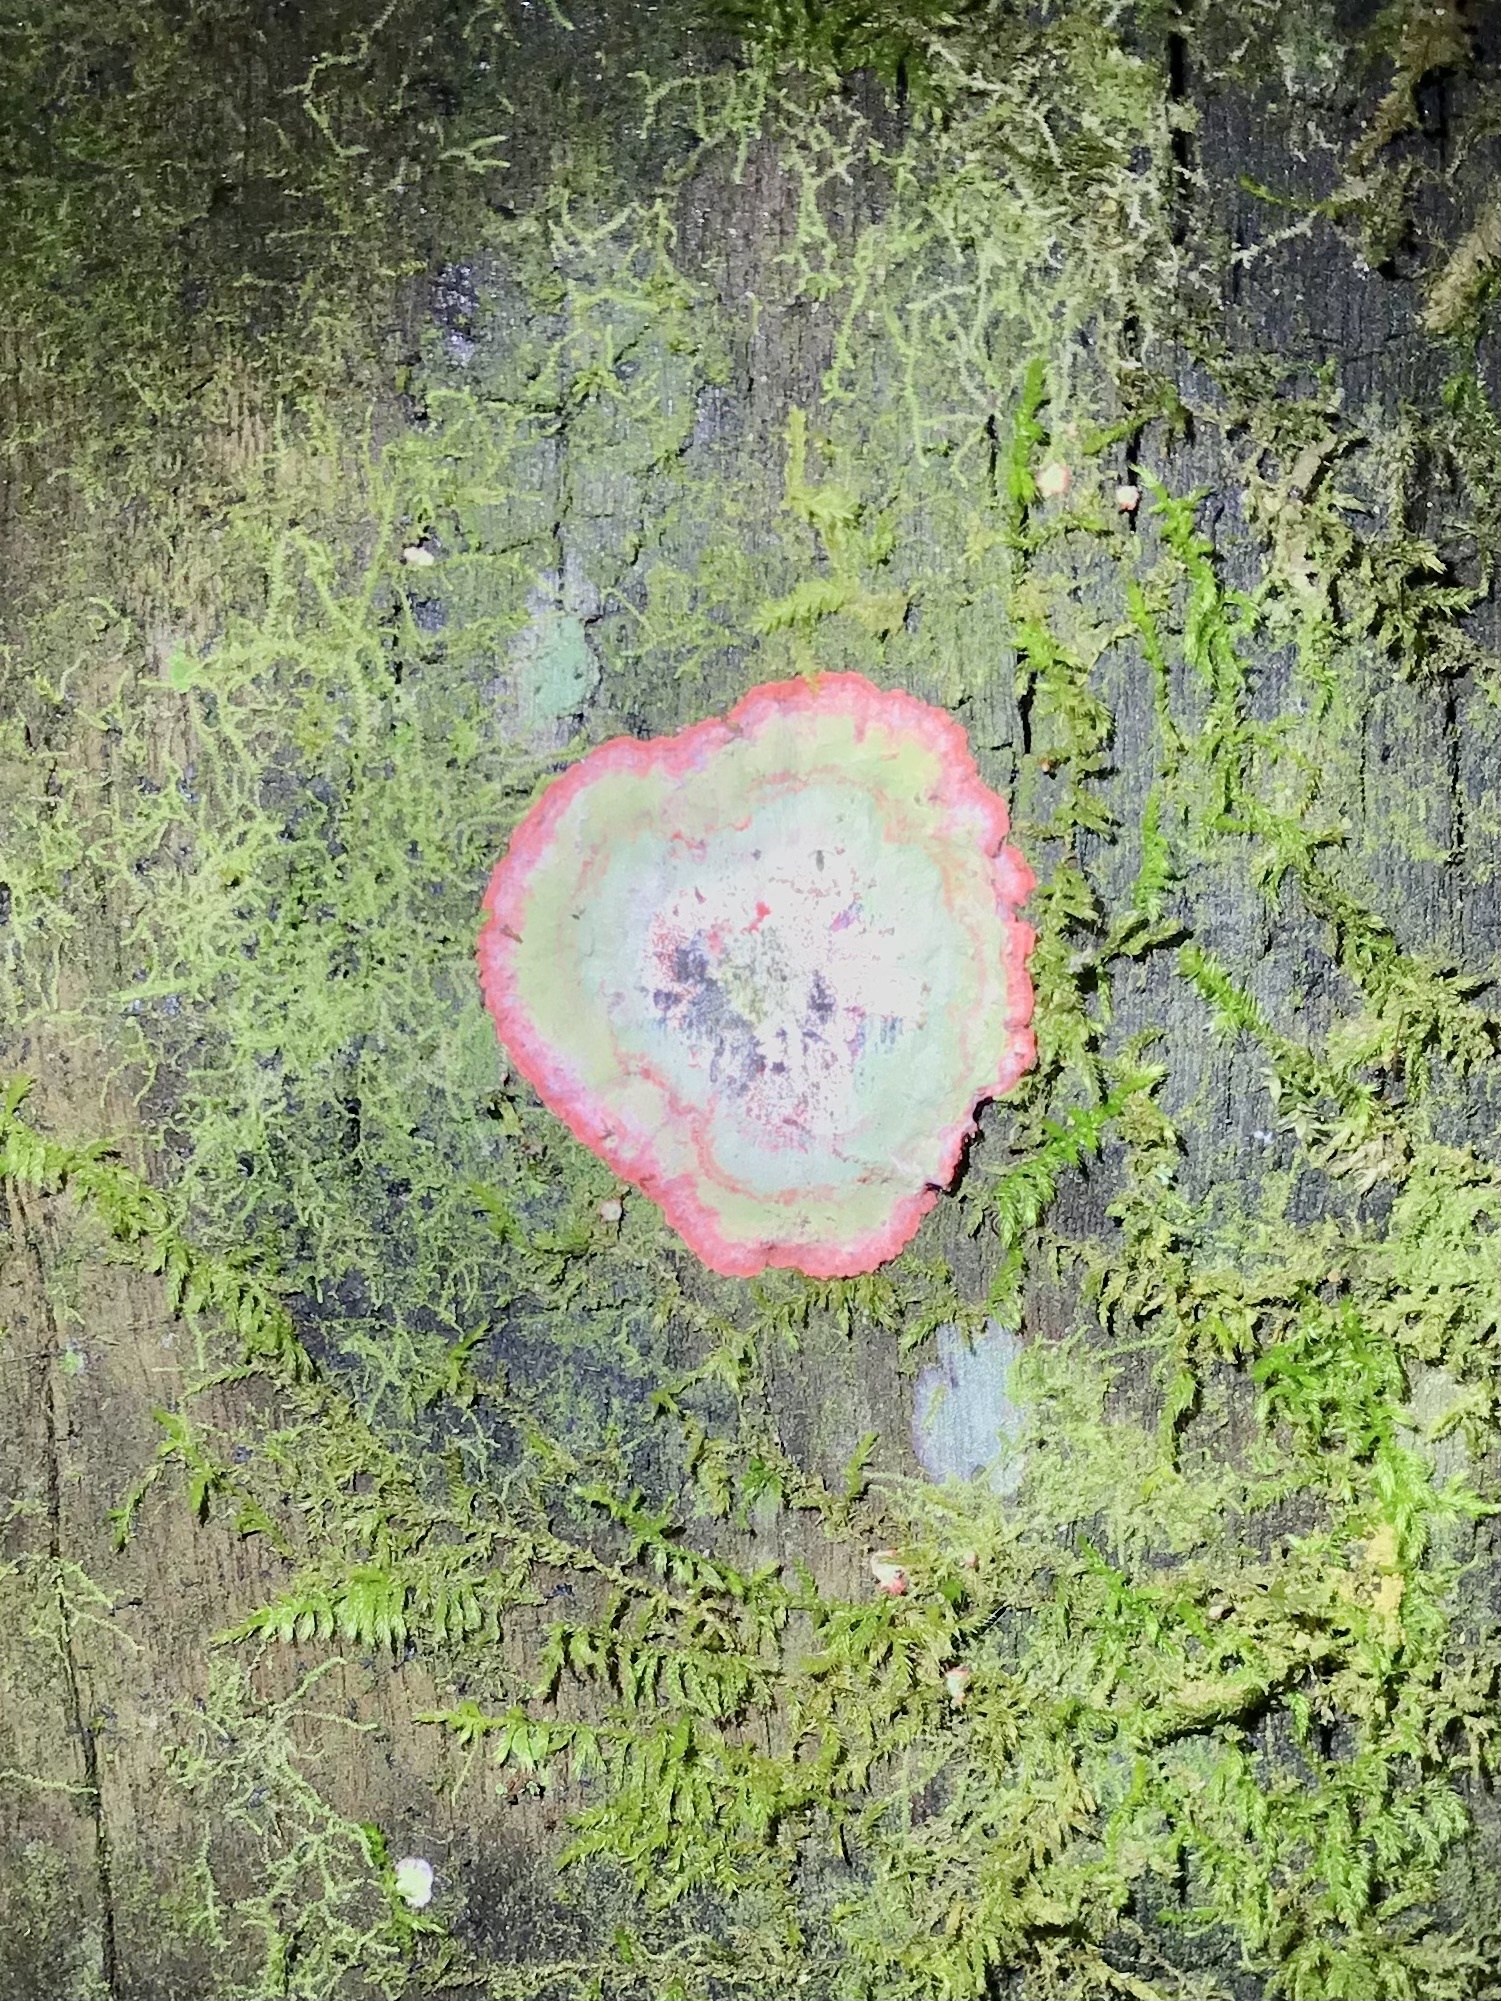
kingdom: Fungi
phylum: Ascomycota
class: Arthoniomycetes
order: Arthoniales
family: Arthoniaceae
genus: Herpothallon
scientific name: Herpothallon rubrocinctum
